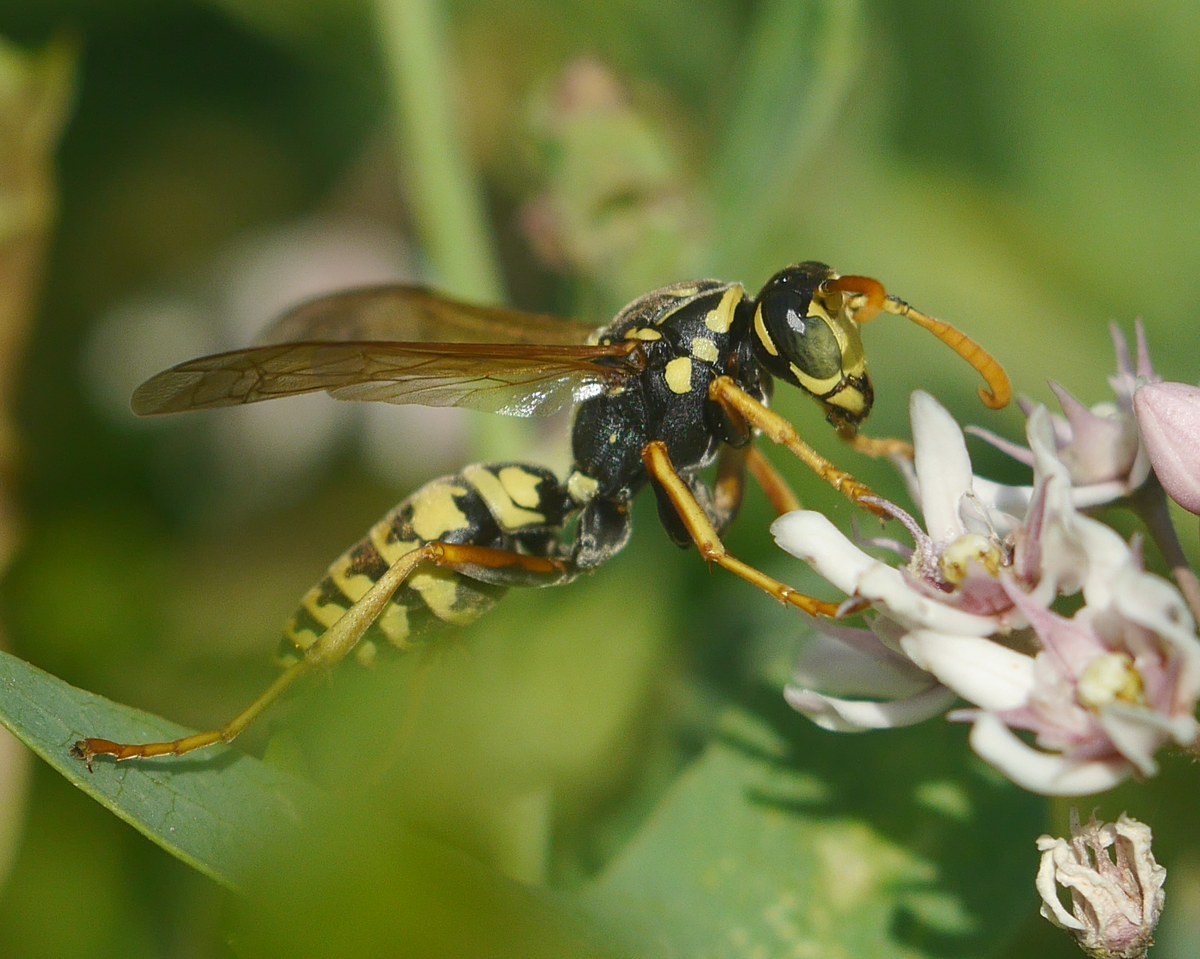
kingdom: Animalia
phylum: Arthropoda
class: Insecta
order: Hymenoptera
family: Eumenidae
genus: Polistes
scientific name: Polistes dominula
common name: Paper wasp
